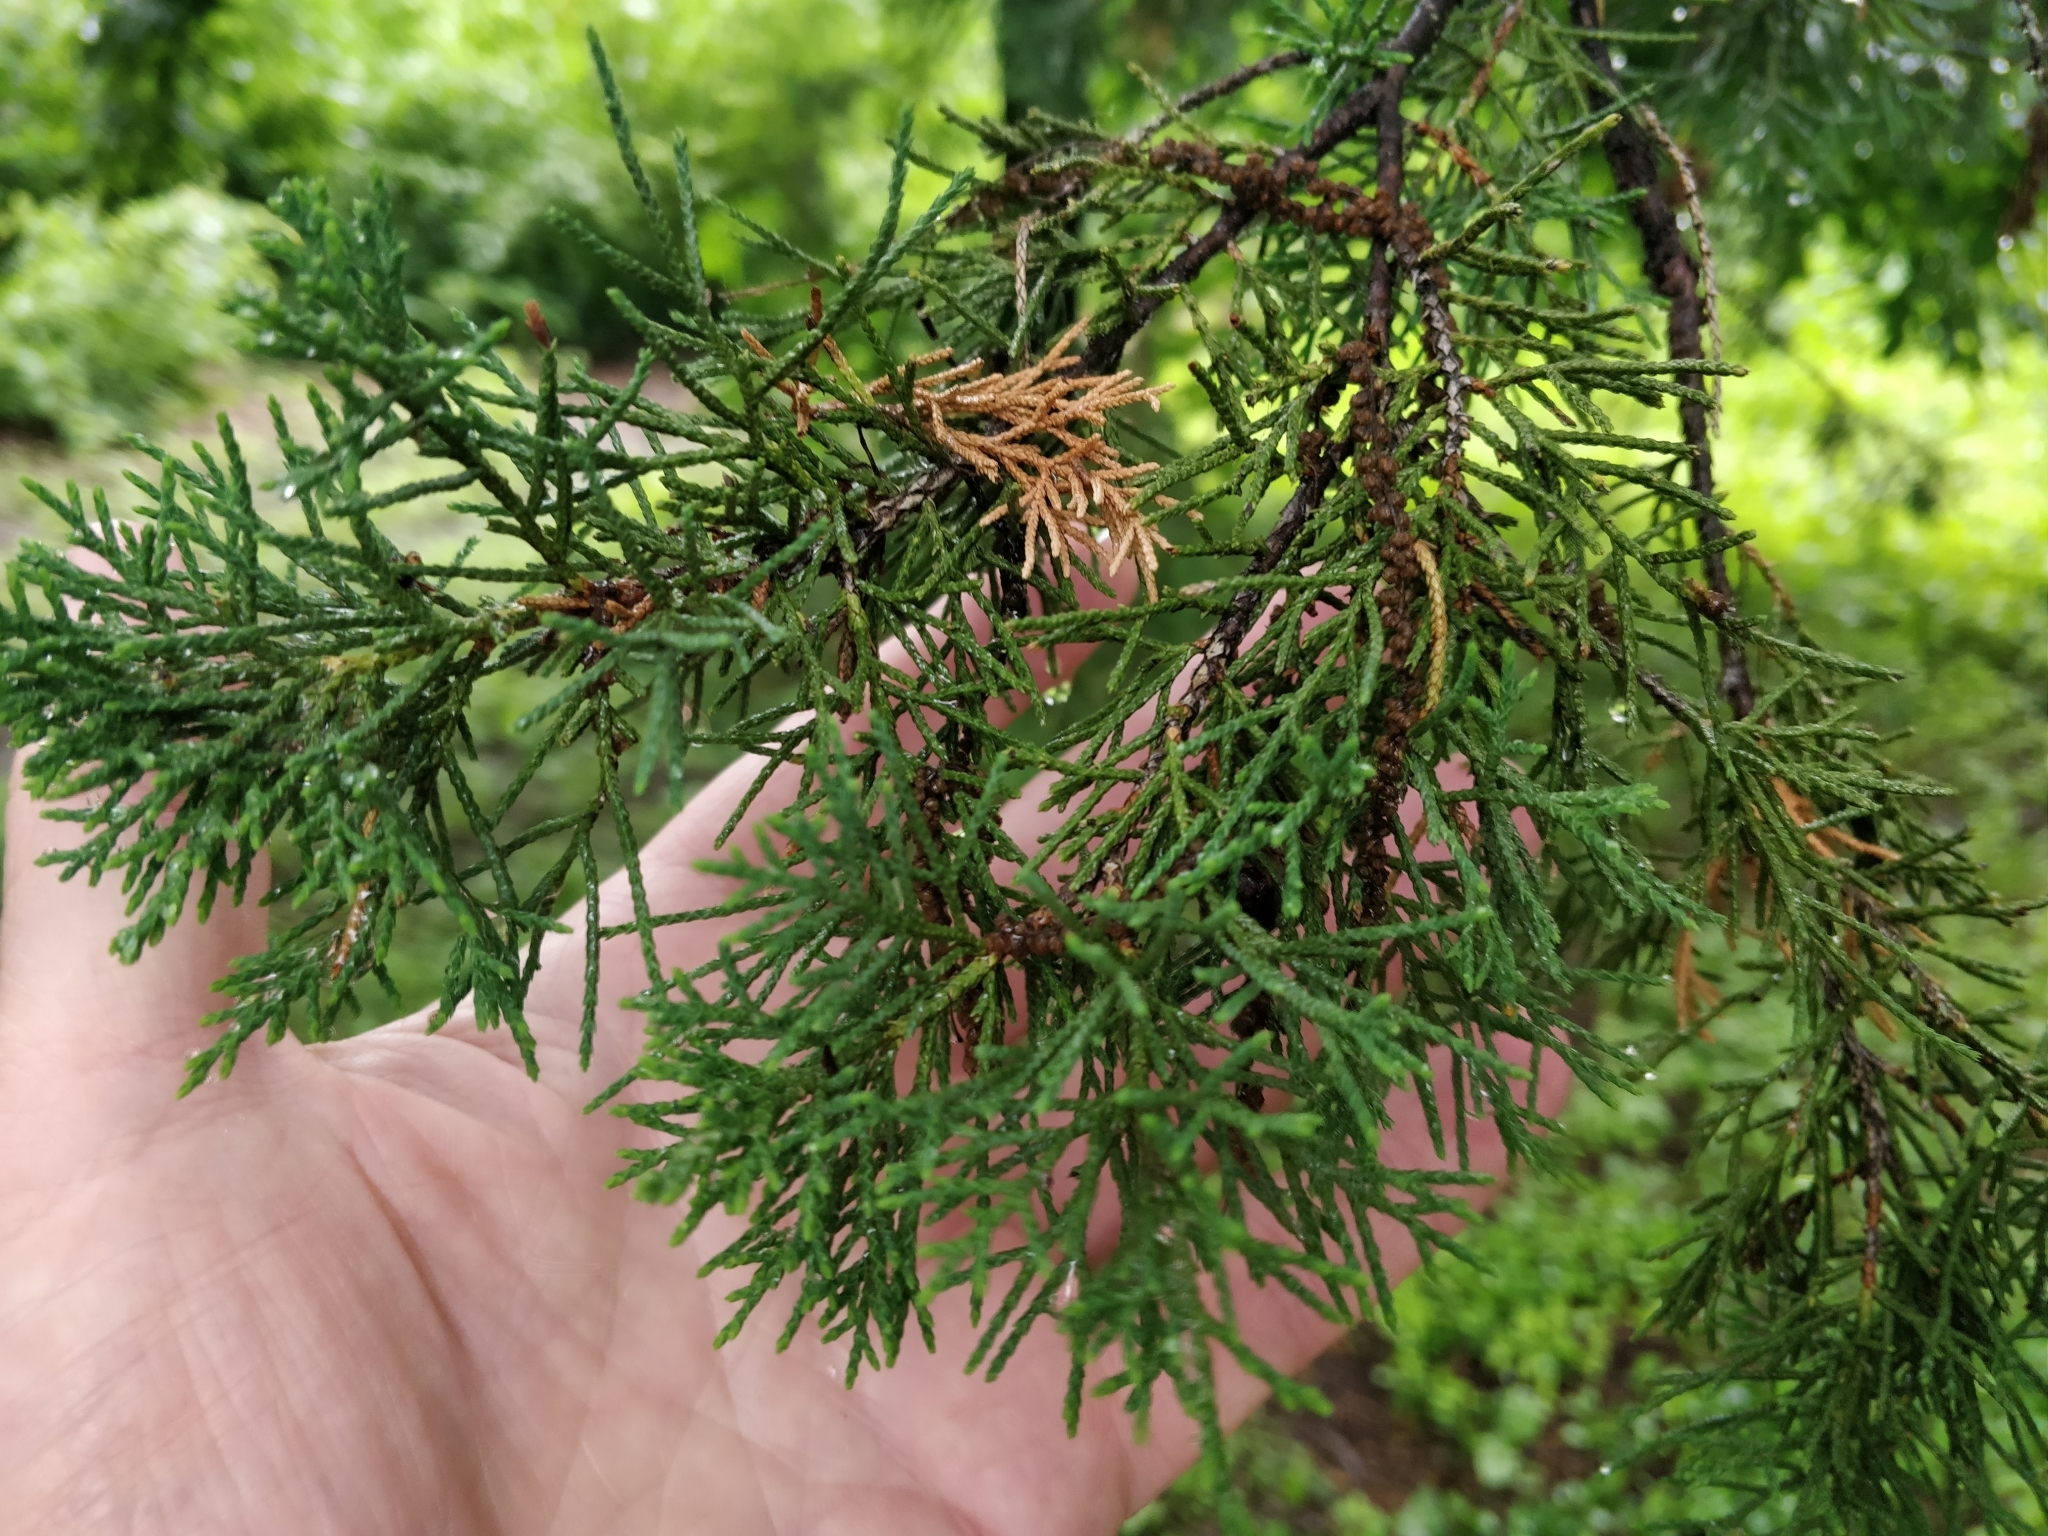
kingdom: Plantae
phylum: Tracheophyta
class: Pinopsida
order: Pinales
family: Cupressaceae
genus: Juniperus
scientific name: Juniperus virginiana
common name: Red juniper
